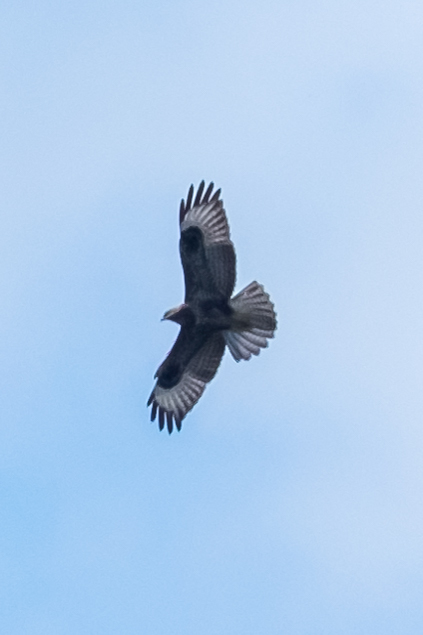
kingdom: Animalia
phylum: Chordata
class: Aves
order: Accipitriformes
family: Accipitridae
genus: Buteo
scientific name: Buteo buteo
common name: Common buzzard
